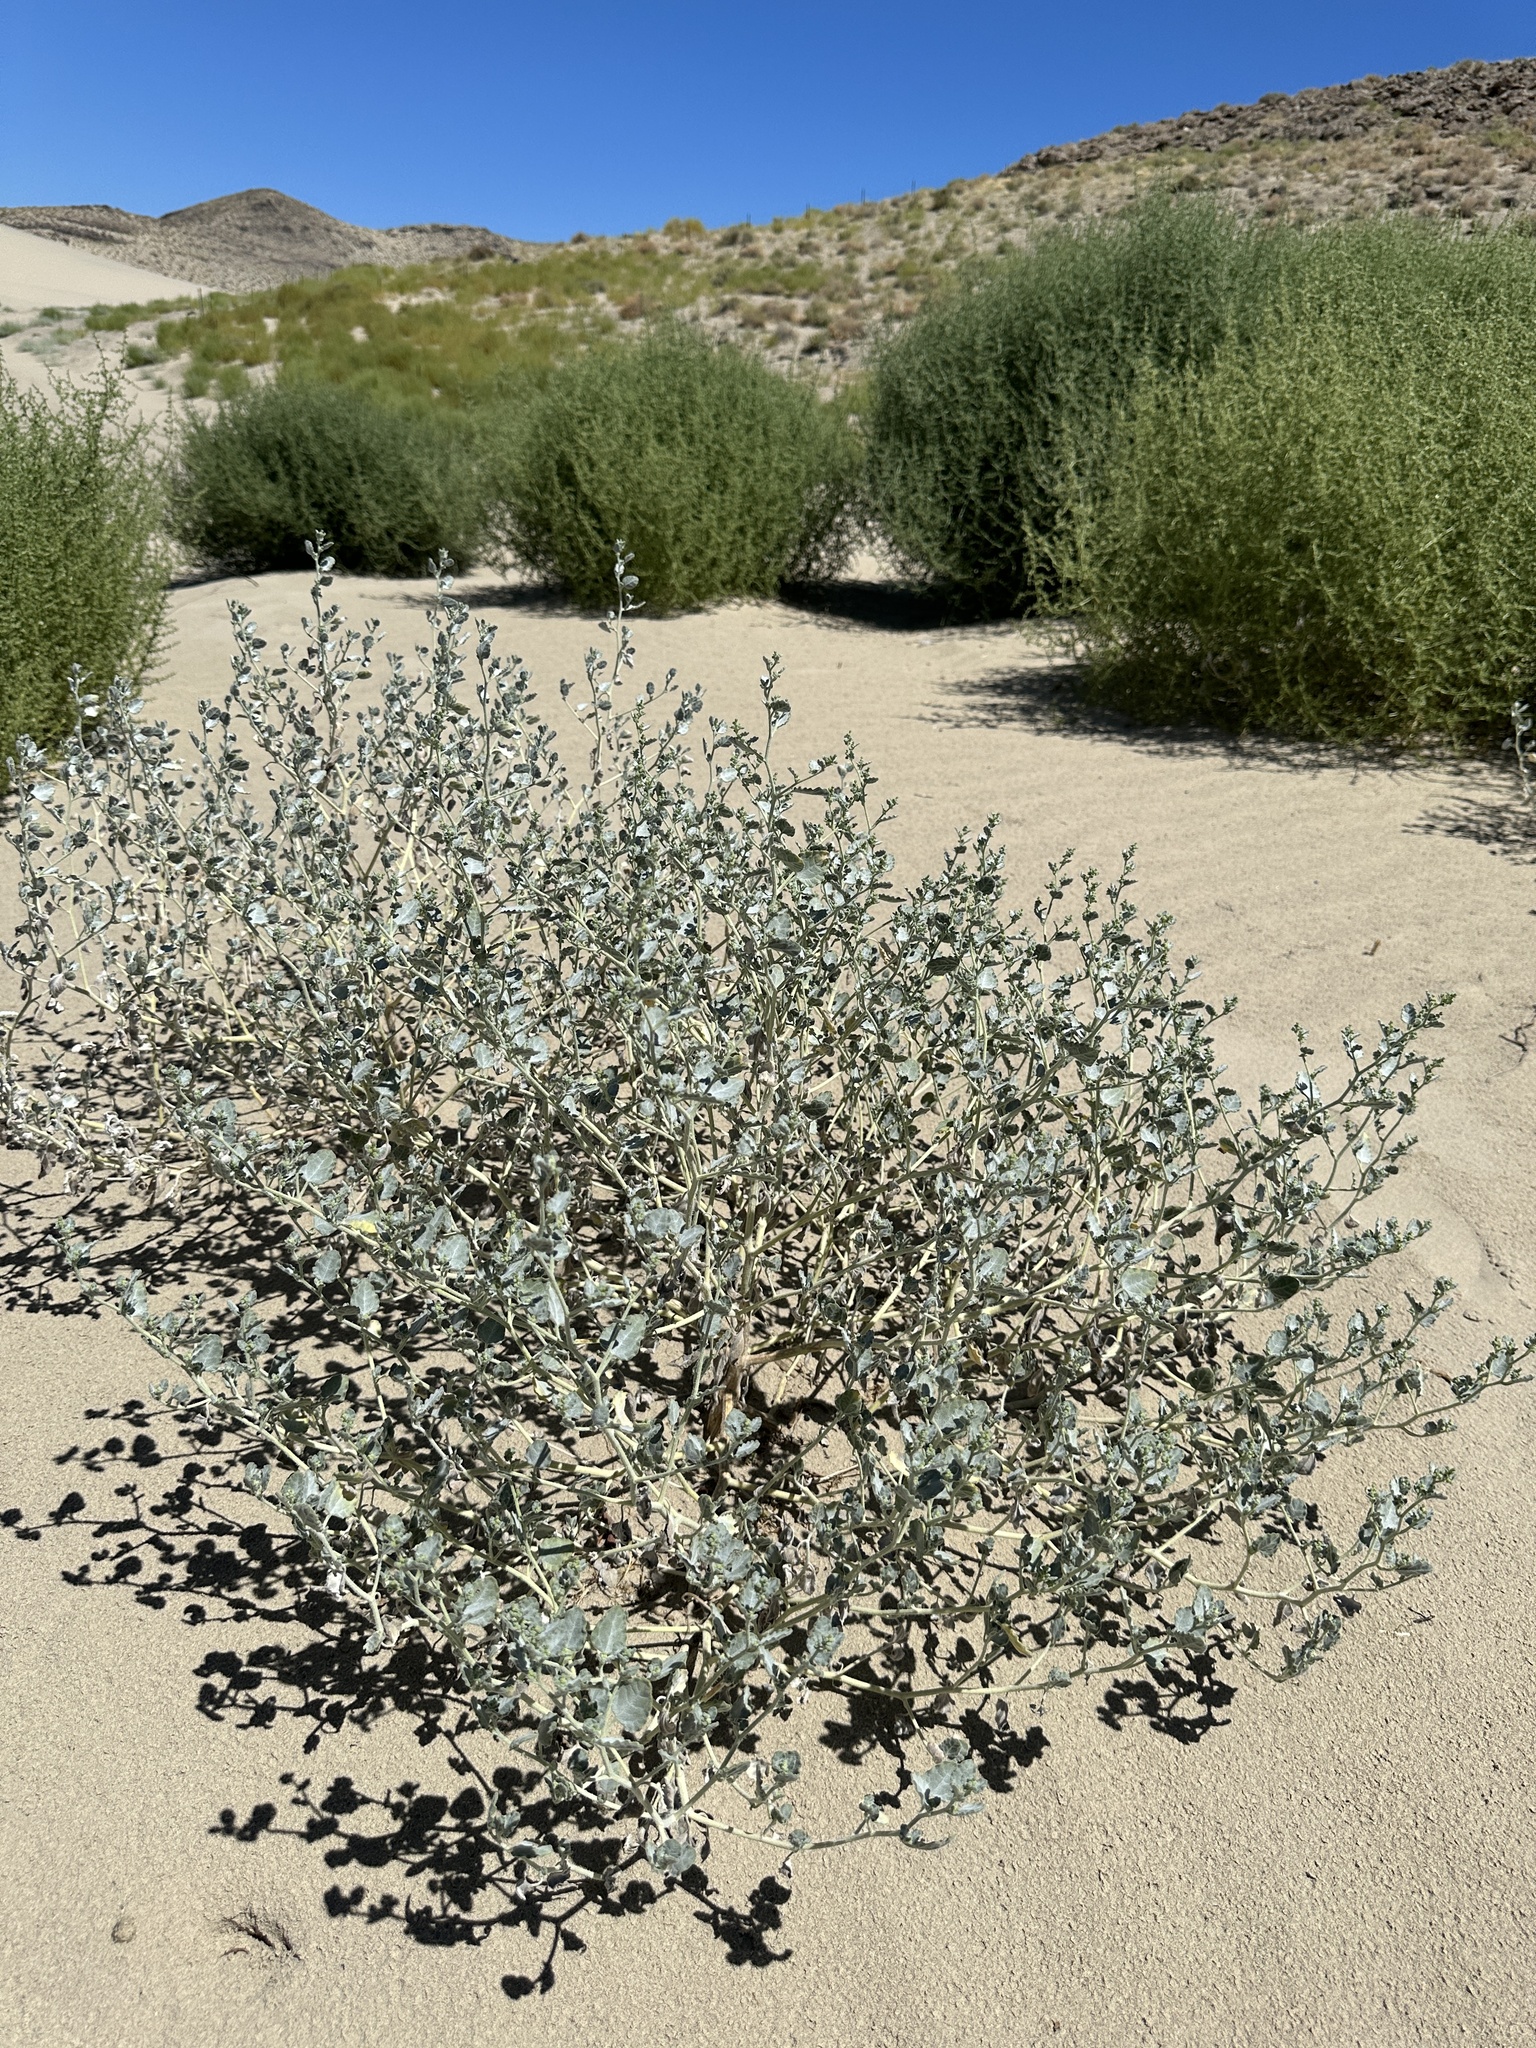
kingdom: Plantae
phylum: Tracheophyta
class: Magnoliopsida
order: Asterales
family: Asteraceae
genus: Dicoria
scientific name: Dicoria canescens
